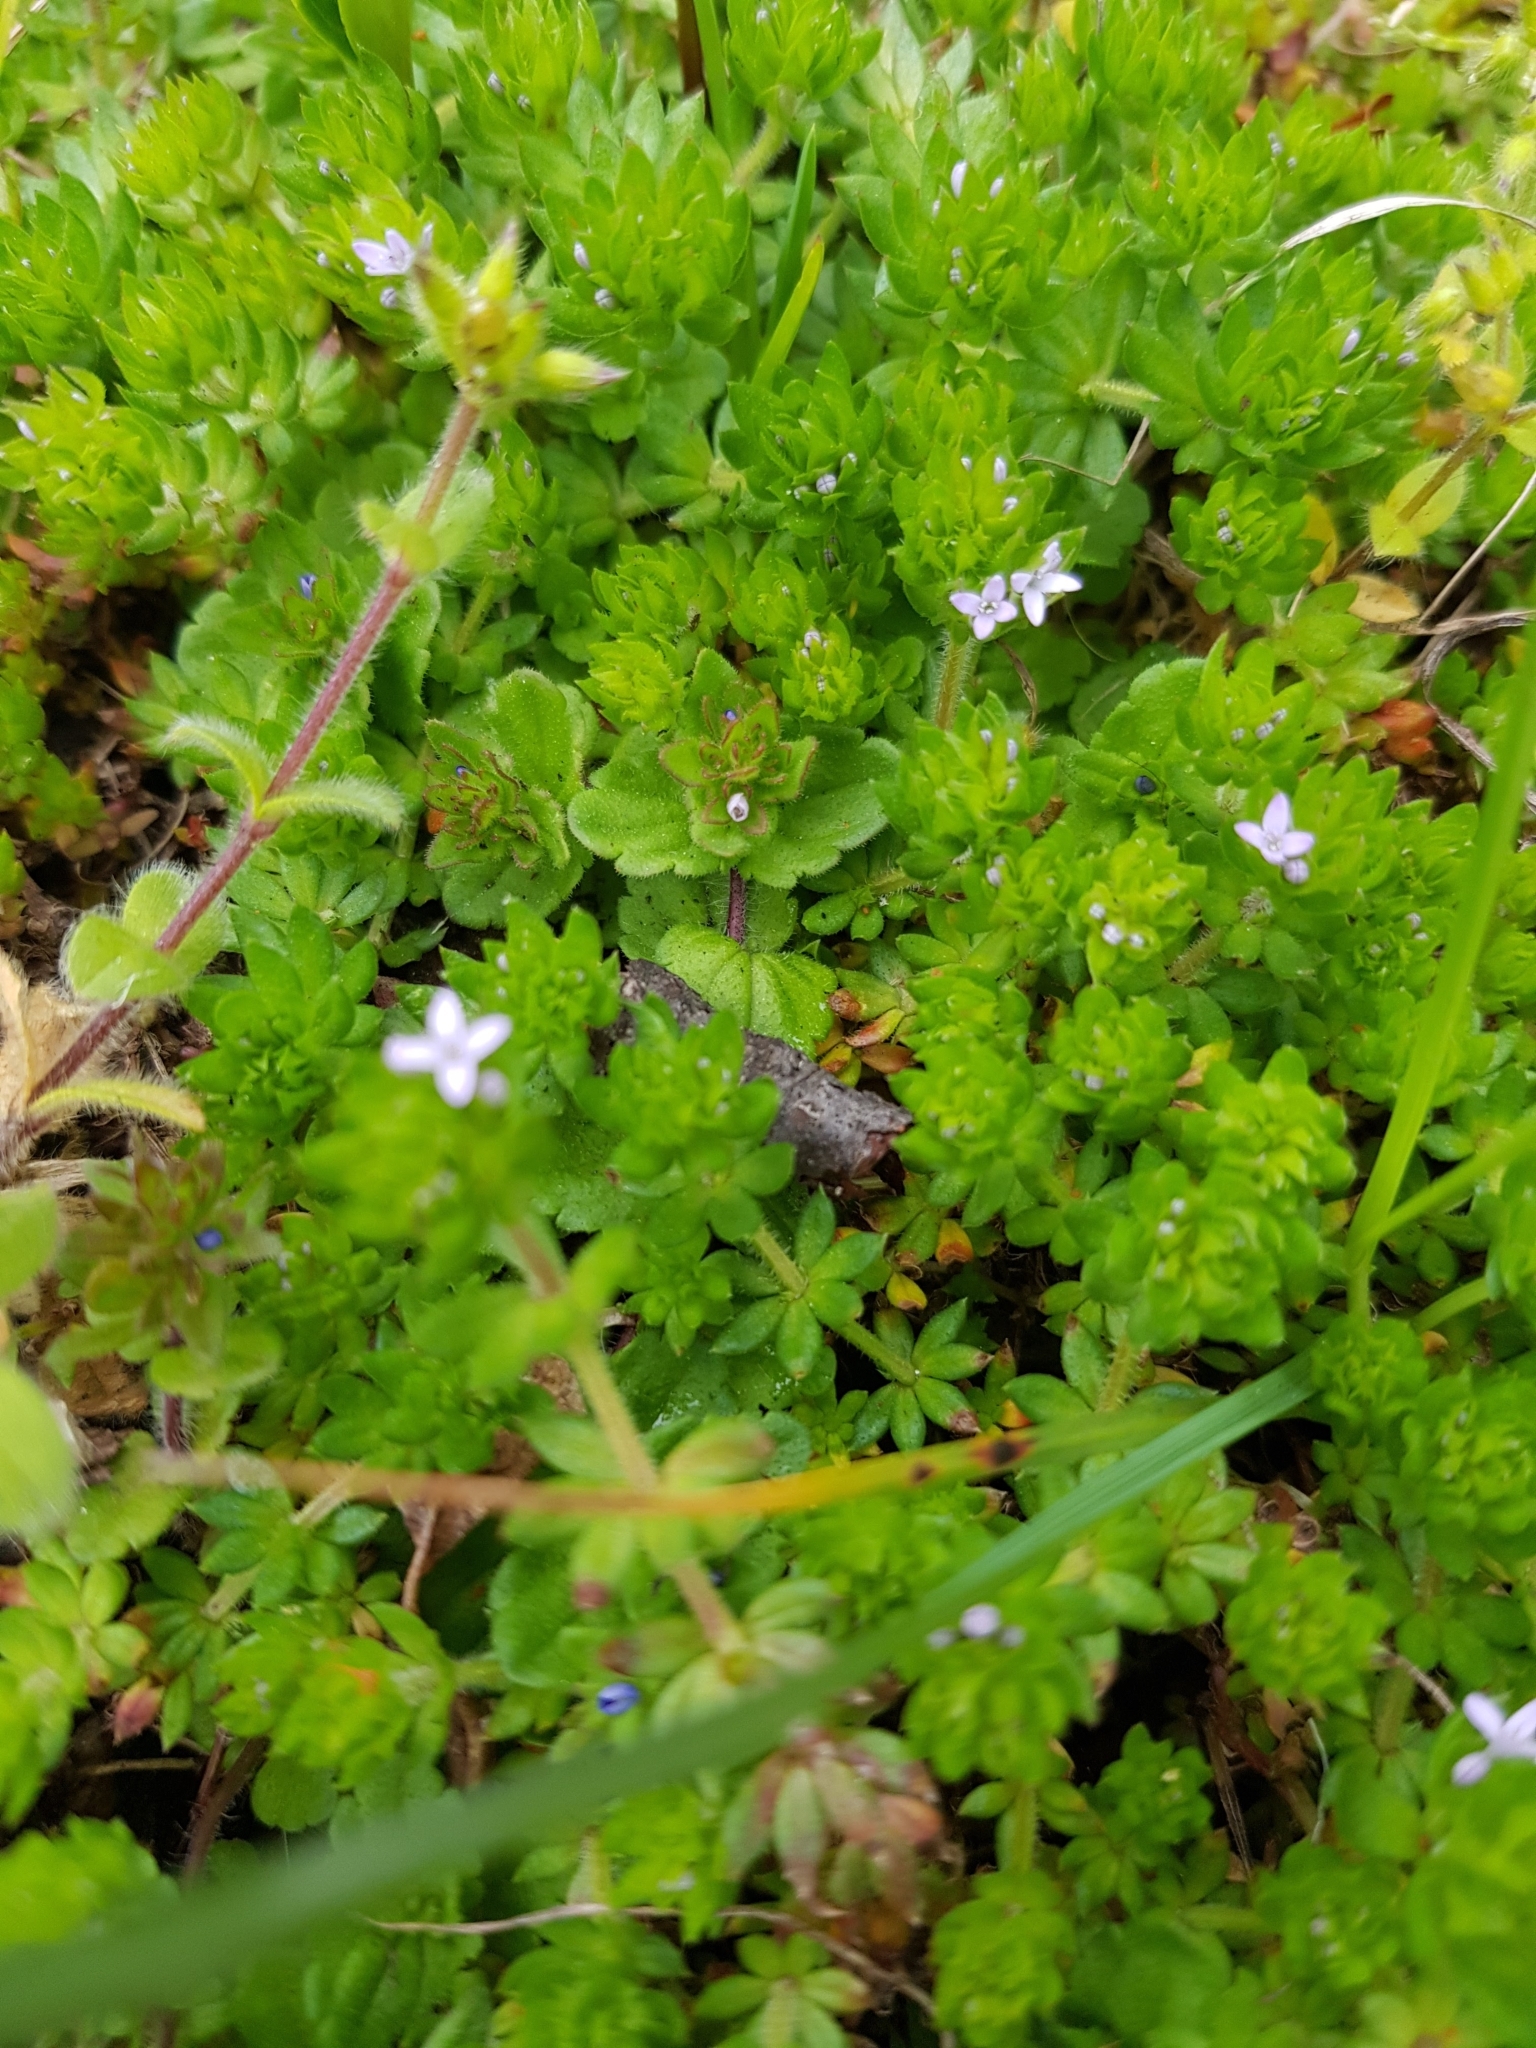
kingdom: Plantae
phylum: Tracheophyta
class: Magnoliopsida
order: Gentianales
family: Rubiaceae
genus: Sherardia
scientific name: Sherardia arvensis
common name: Field madder
